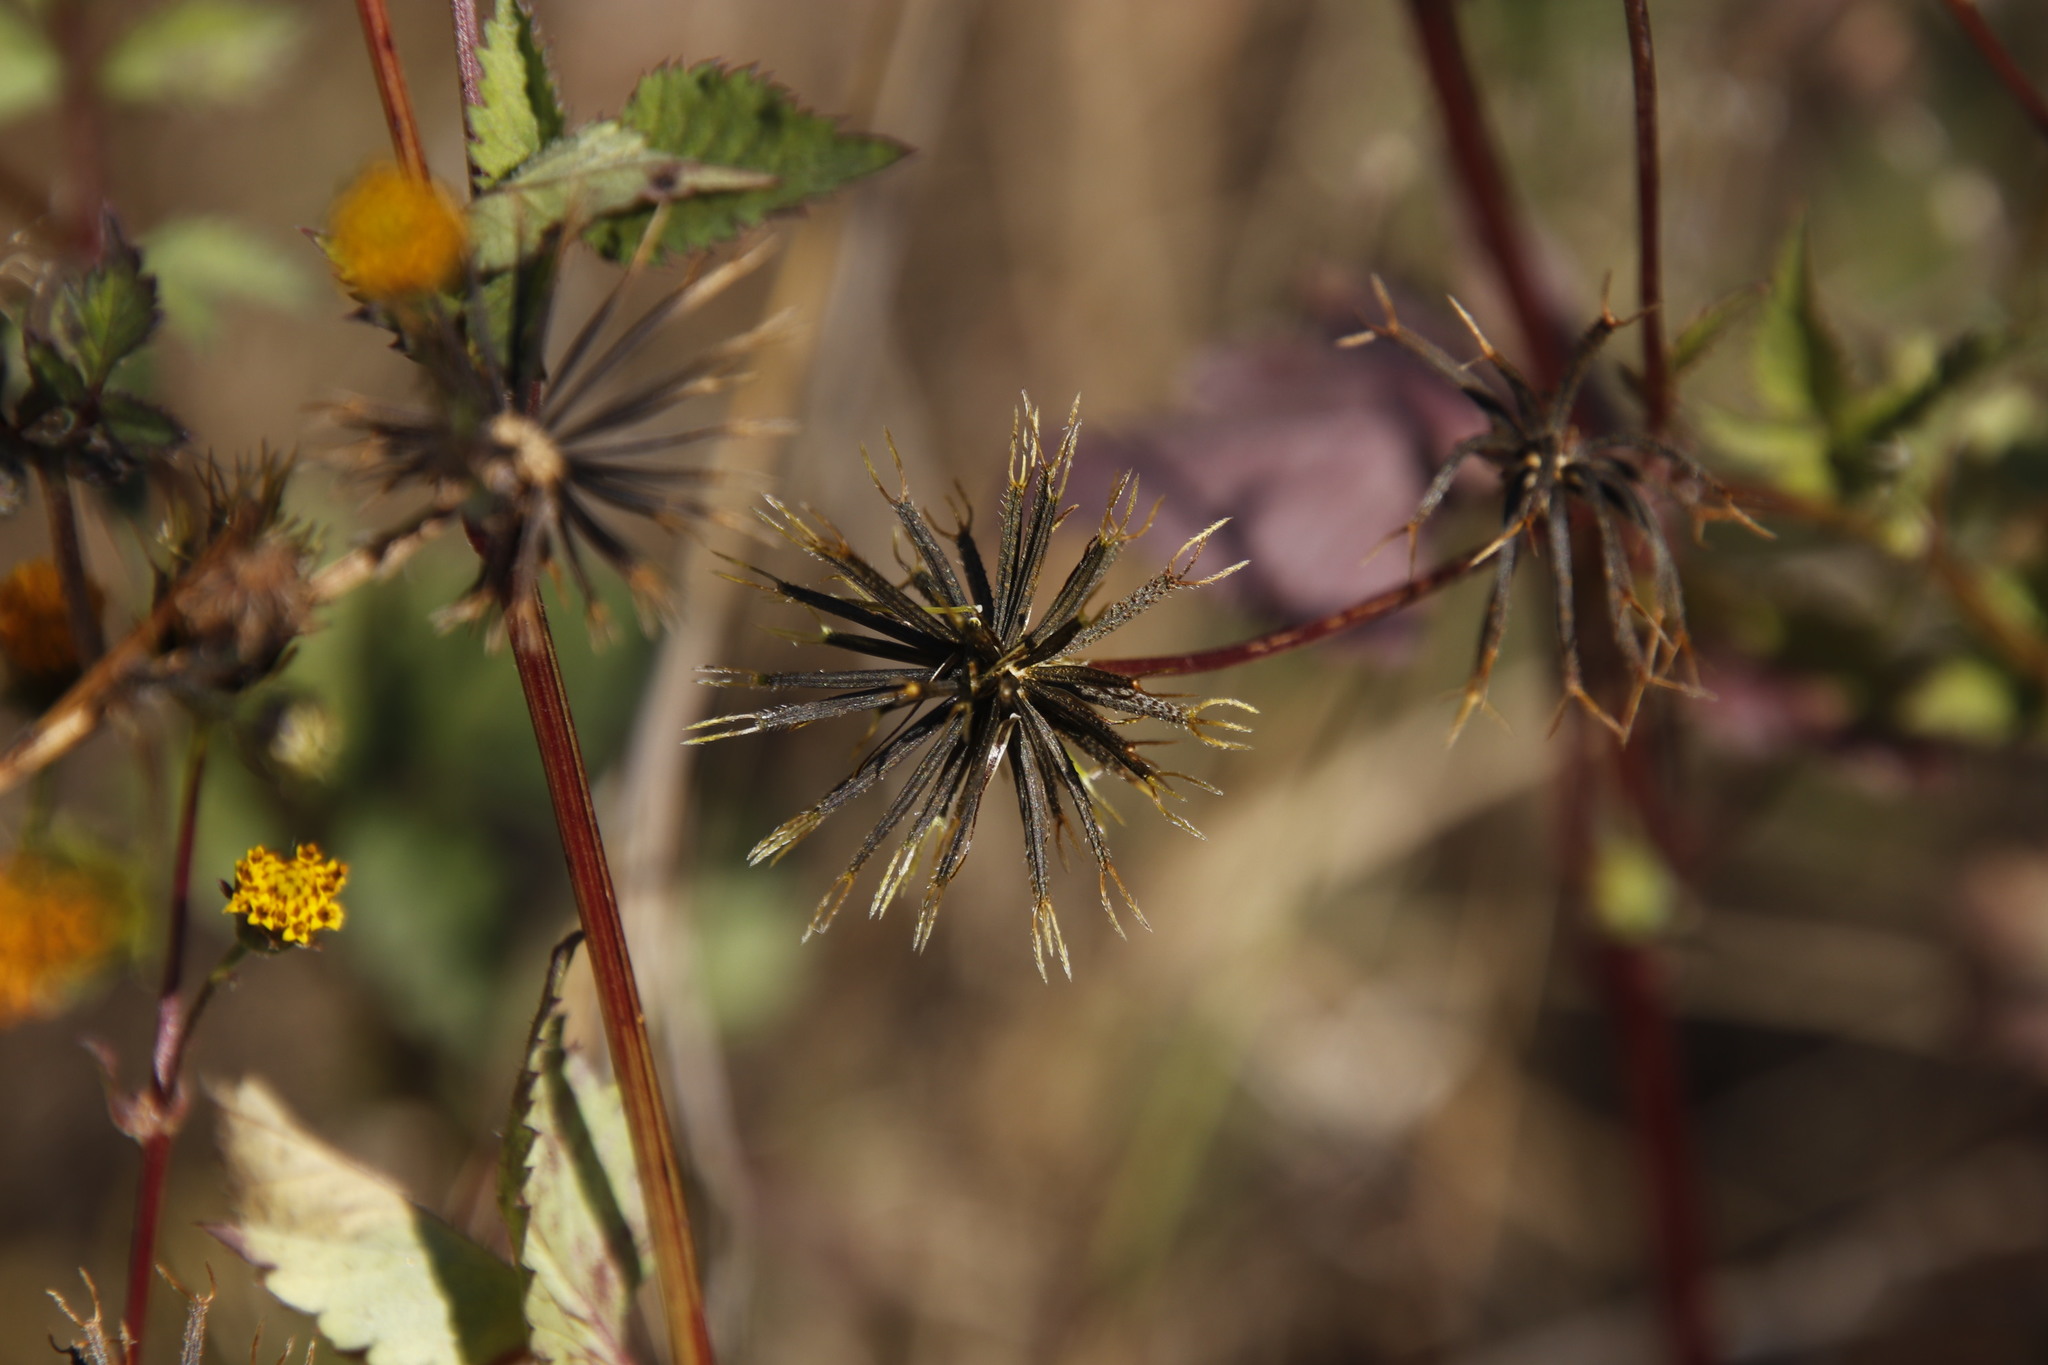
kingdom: Plantae
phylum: Tracheophyta
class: Magnoliopsida
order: Asterales
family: Asteraceae
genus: Bidens
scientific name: Bidens bipinnata
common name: Spanish-needles
